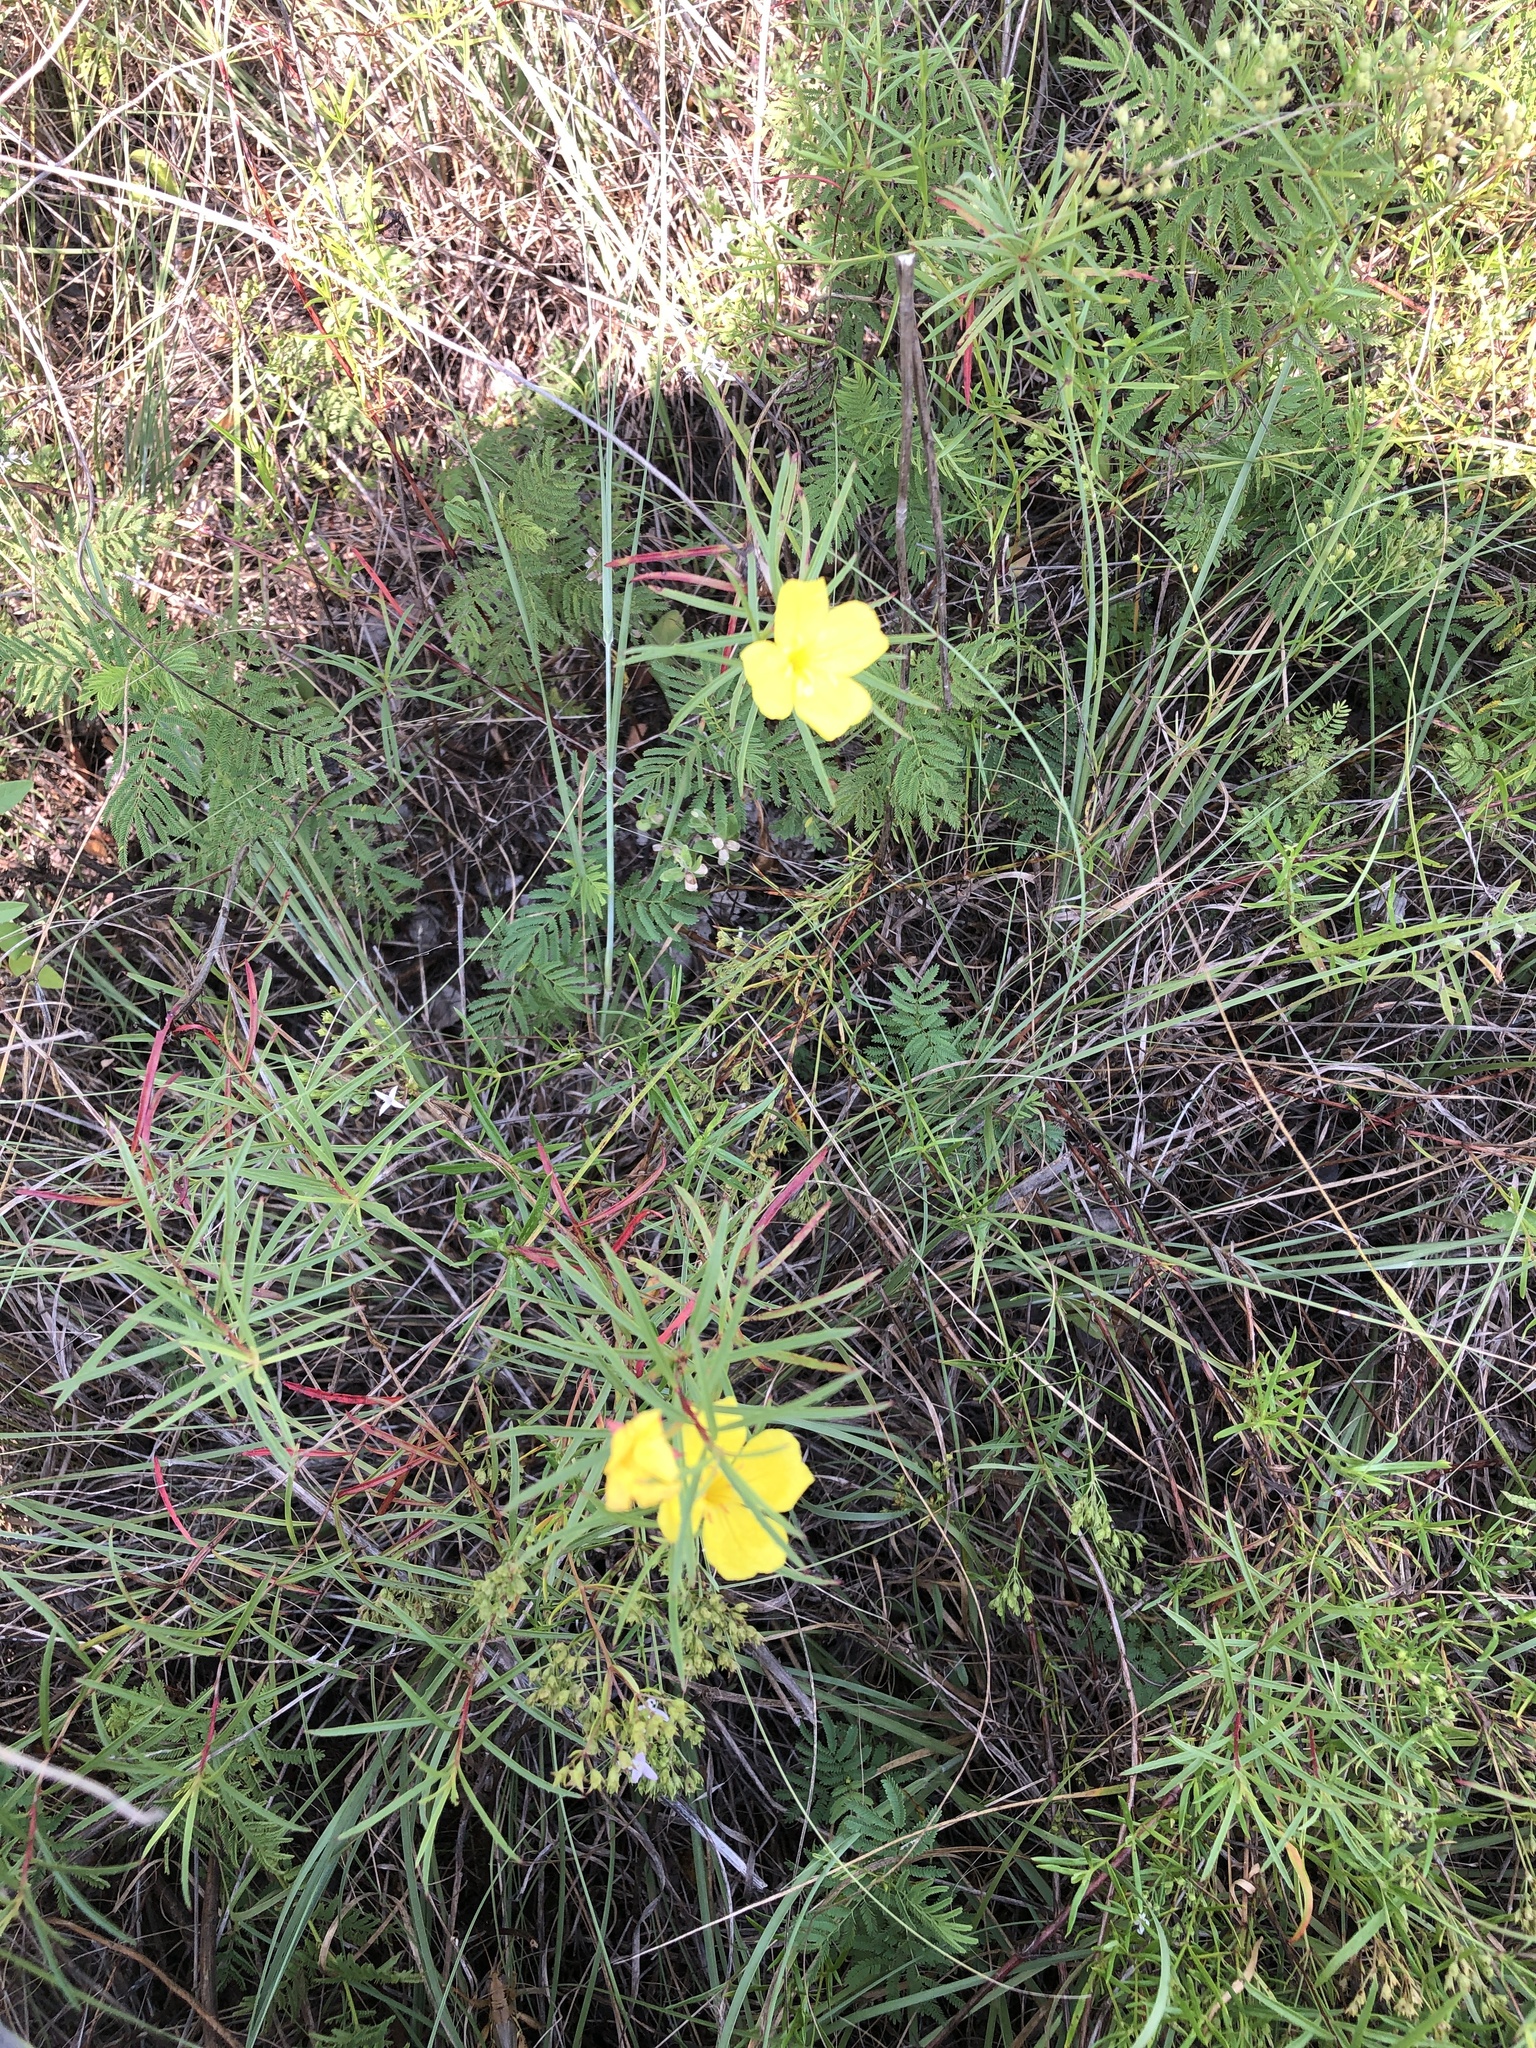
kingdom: Plantae
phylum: Tracheophyta
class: Magnoliopsida
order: Myrtales
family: Onagraceae
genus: Oenothera
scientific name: Oenothera
